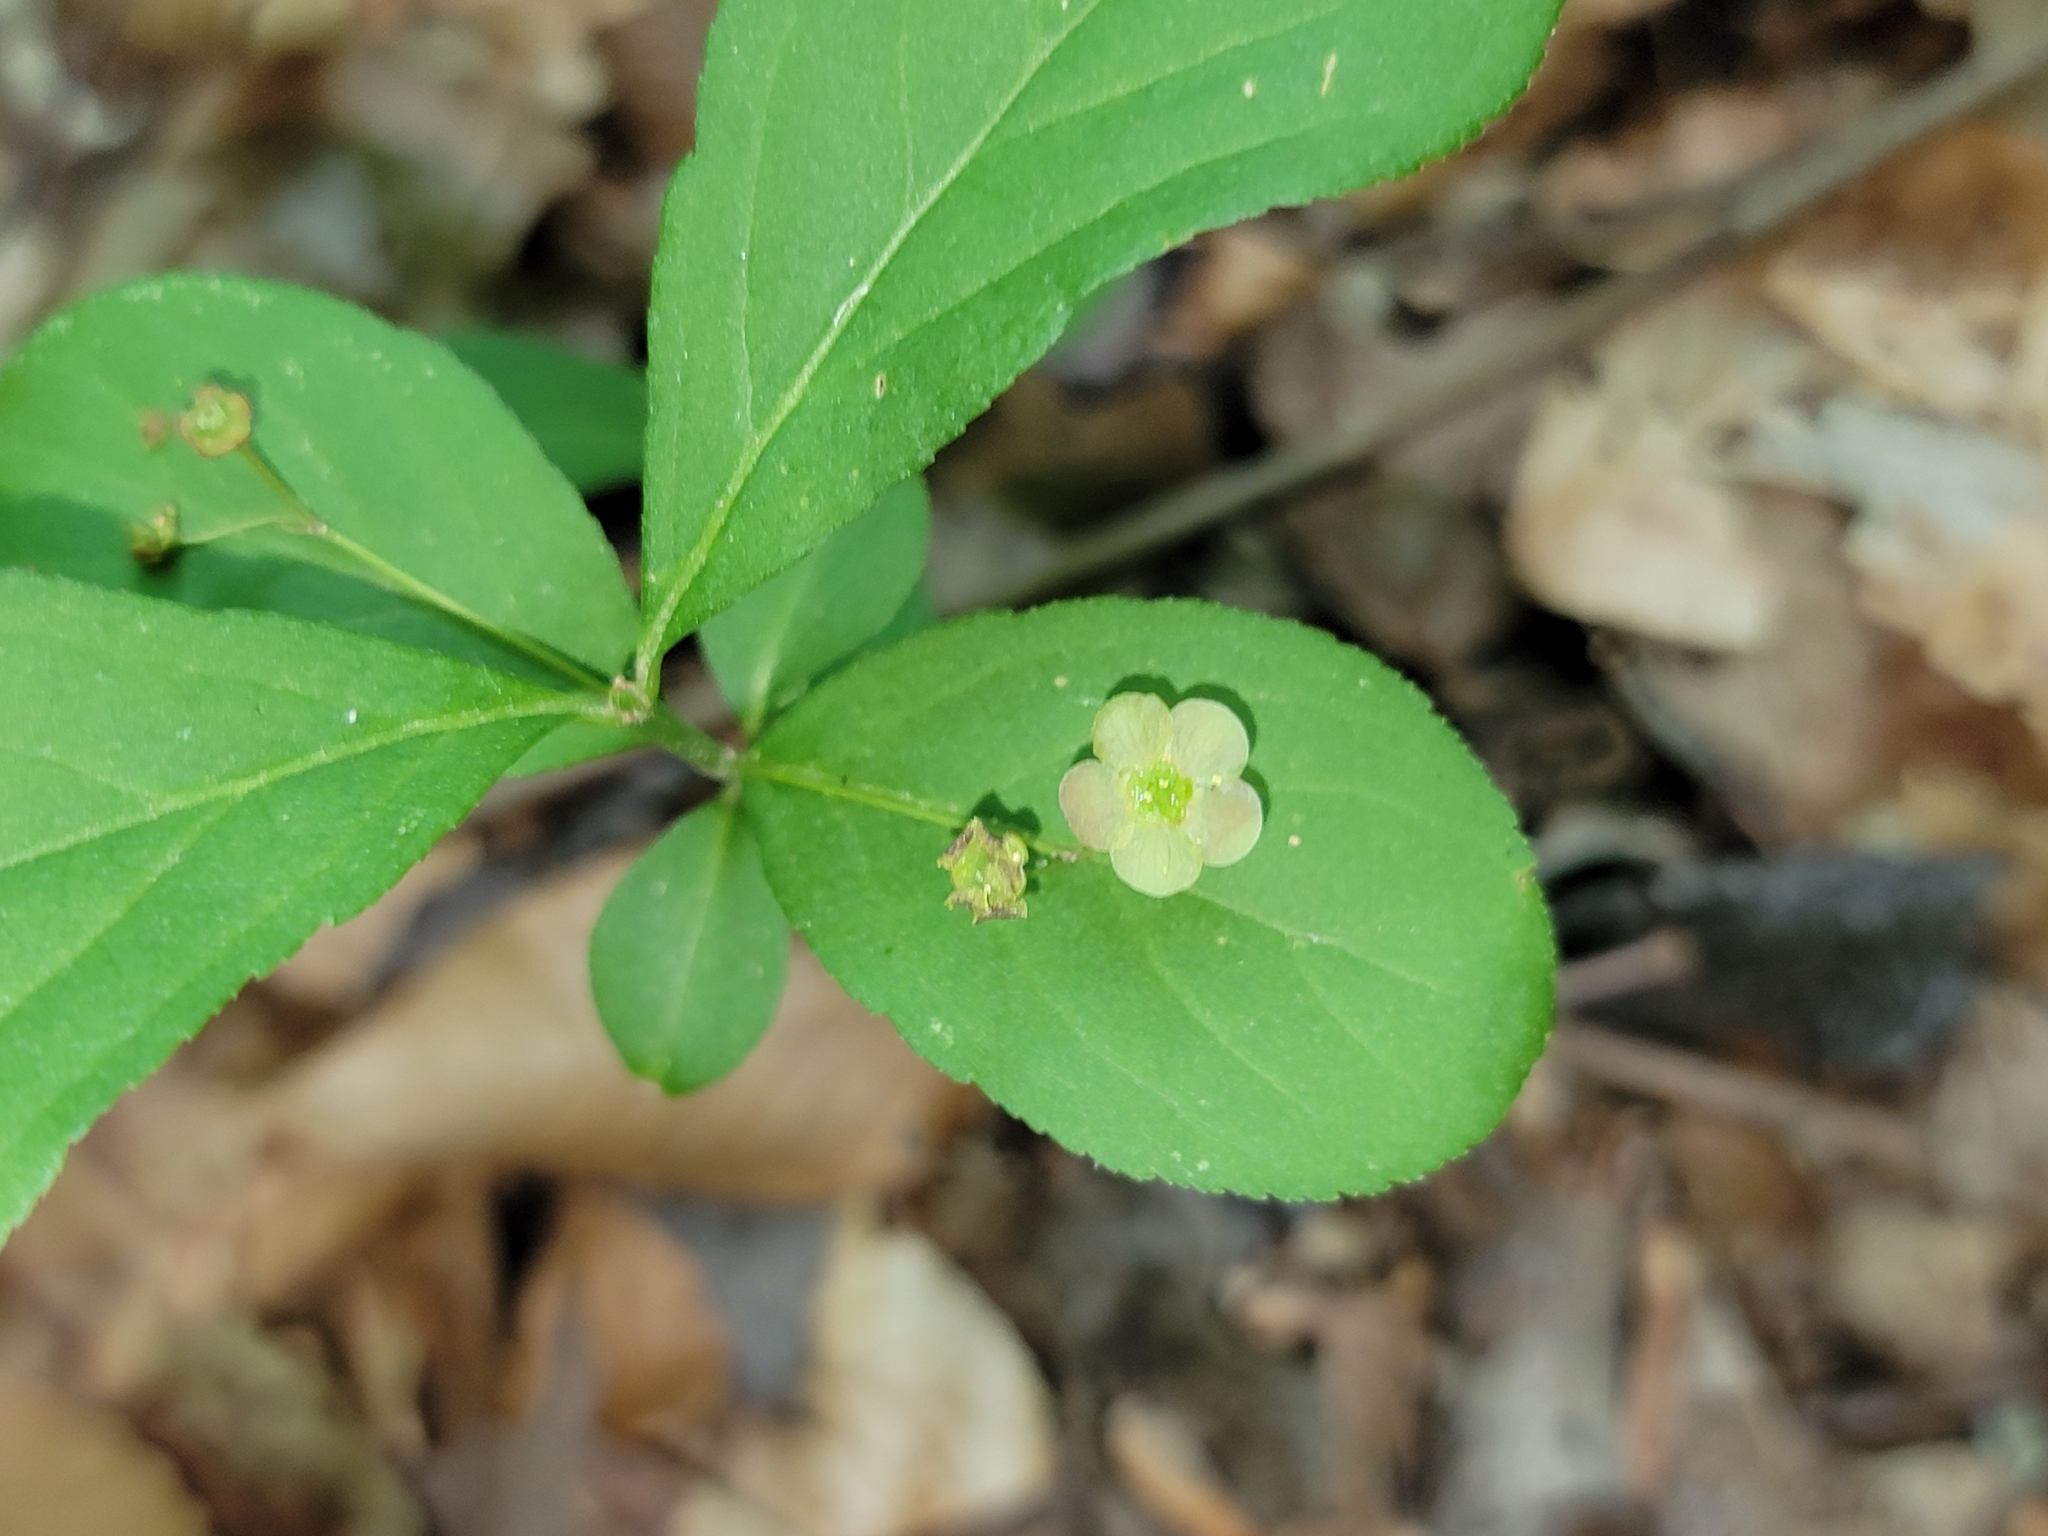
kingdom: Plantae
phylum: Tracheophyta
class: Magnoliopsida
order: Celastrales
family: Celastraceae
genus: Euonymus
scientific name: Euonymus obovatus
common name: Running strawberry-bush
